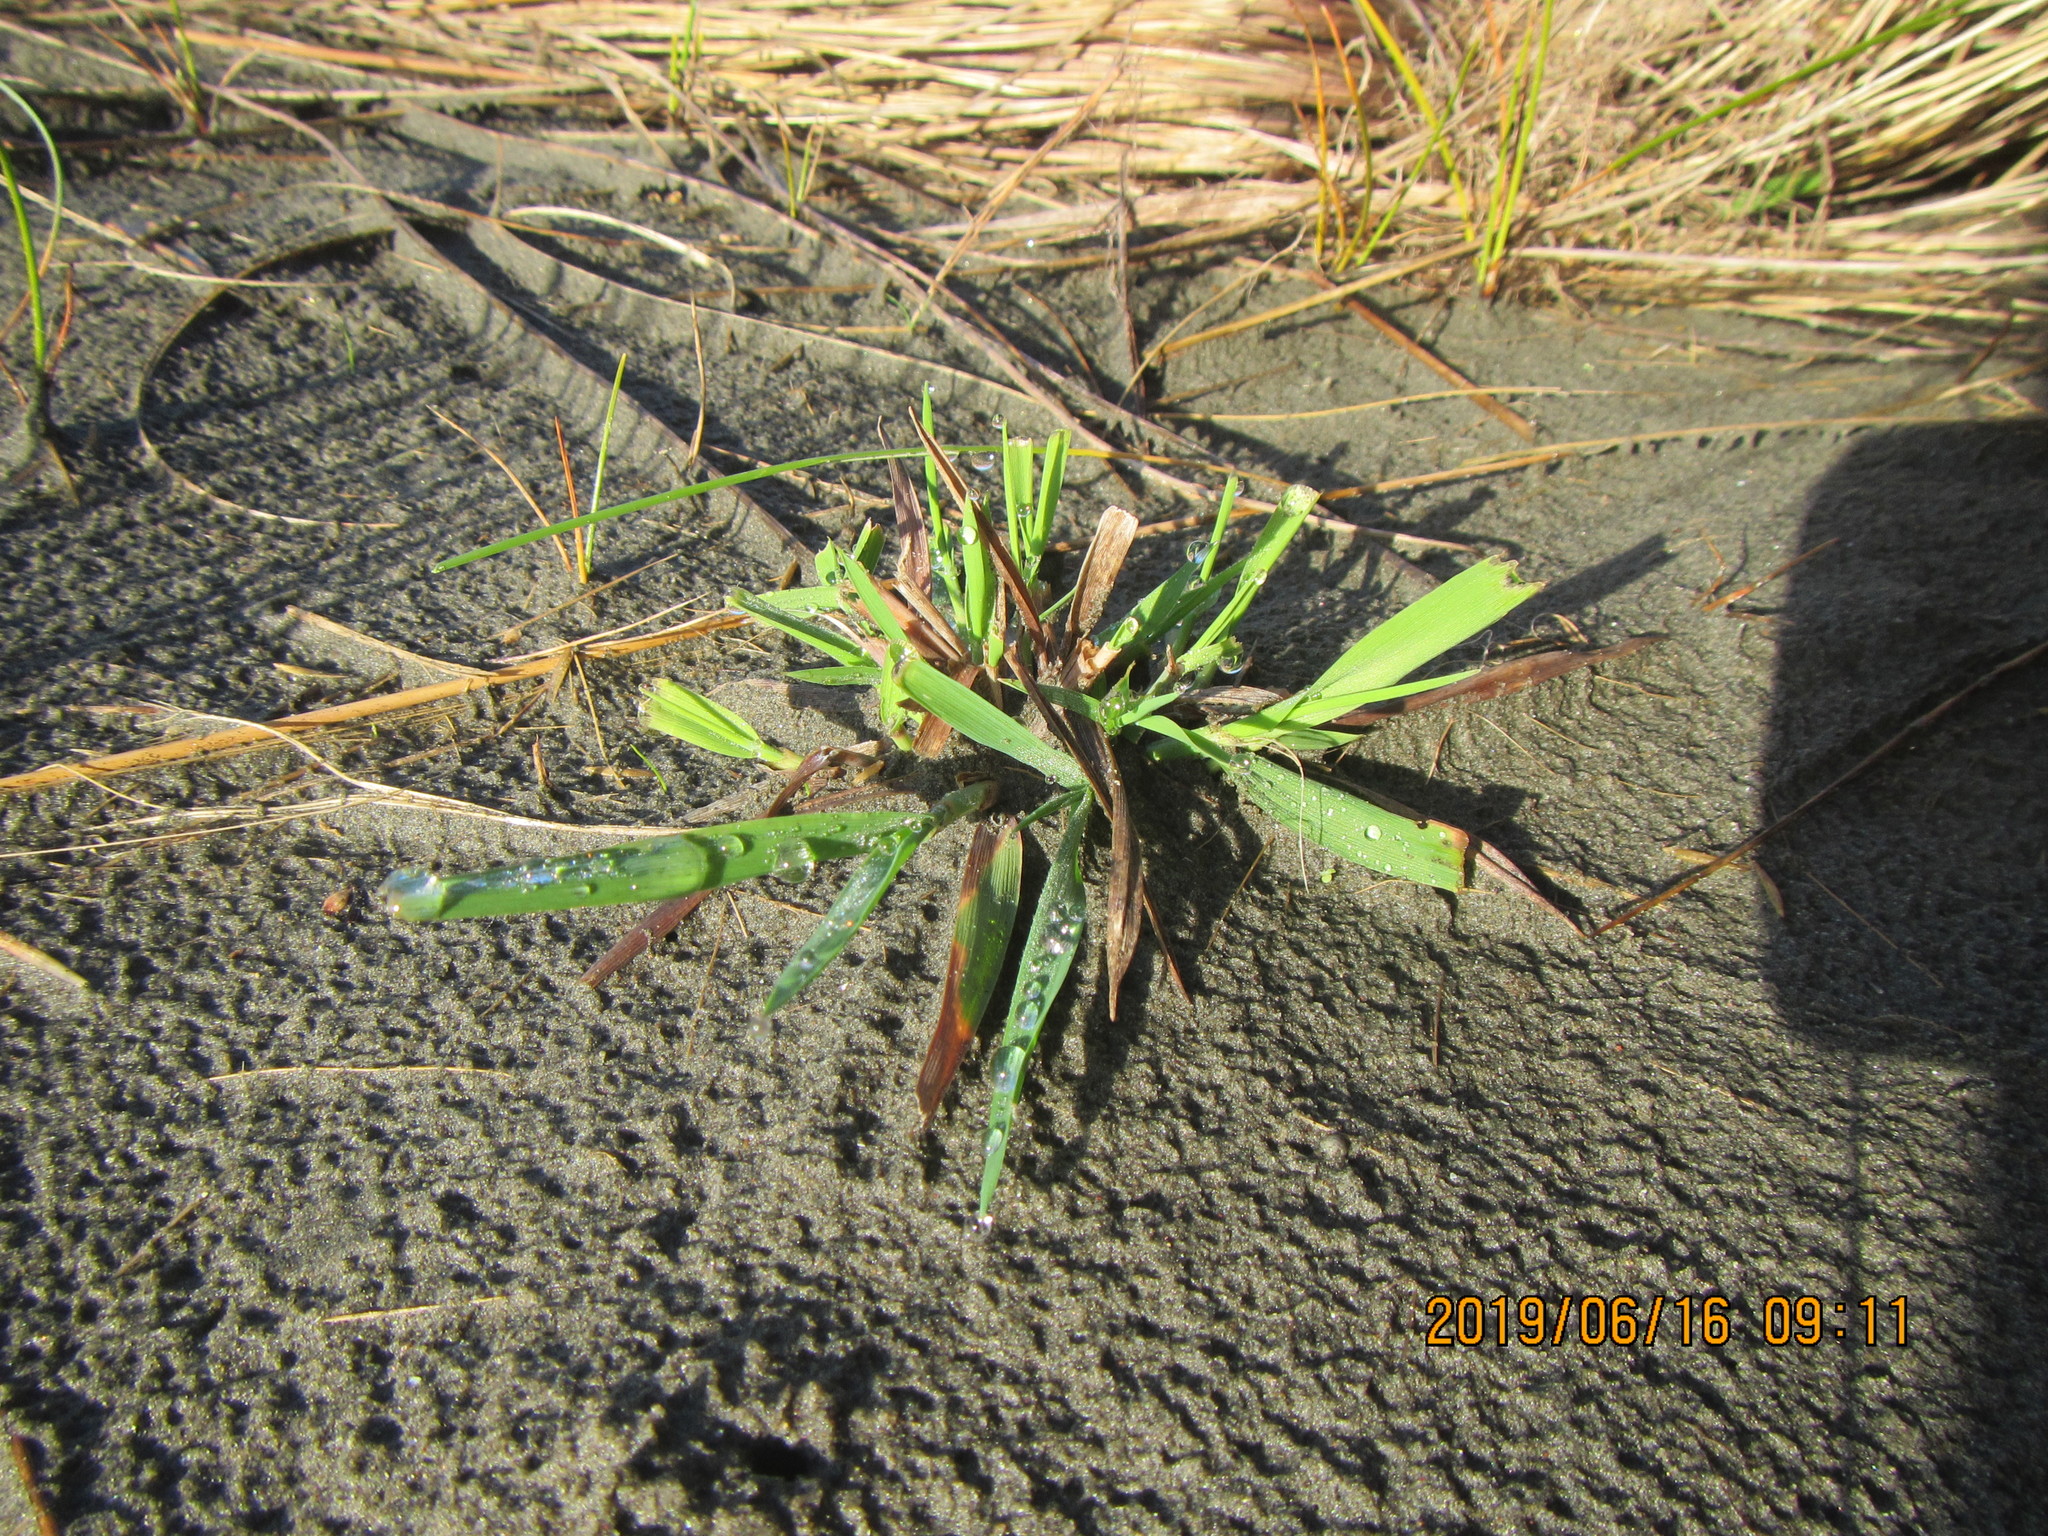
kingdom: Plantae
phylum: Tracheophyta
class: Liliopsida
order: Poales
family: Poaceae
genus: Lachnagrostis
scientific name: Lachnagrostis billardierei
